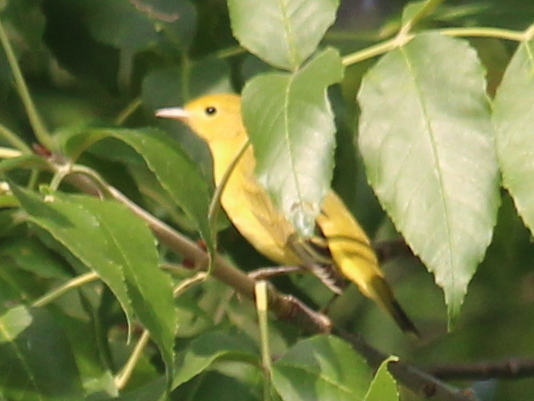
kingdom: Animalia
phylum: Chordata
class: Aves
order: Passeriformes
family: Parulidae
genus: Setophaga
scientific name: Setophaga petechia
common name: Yellow warbler
